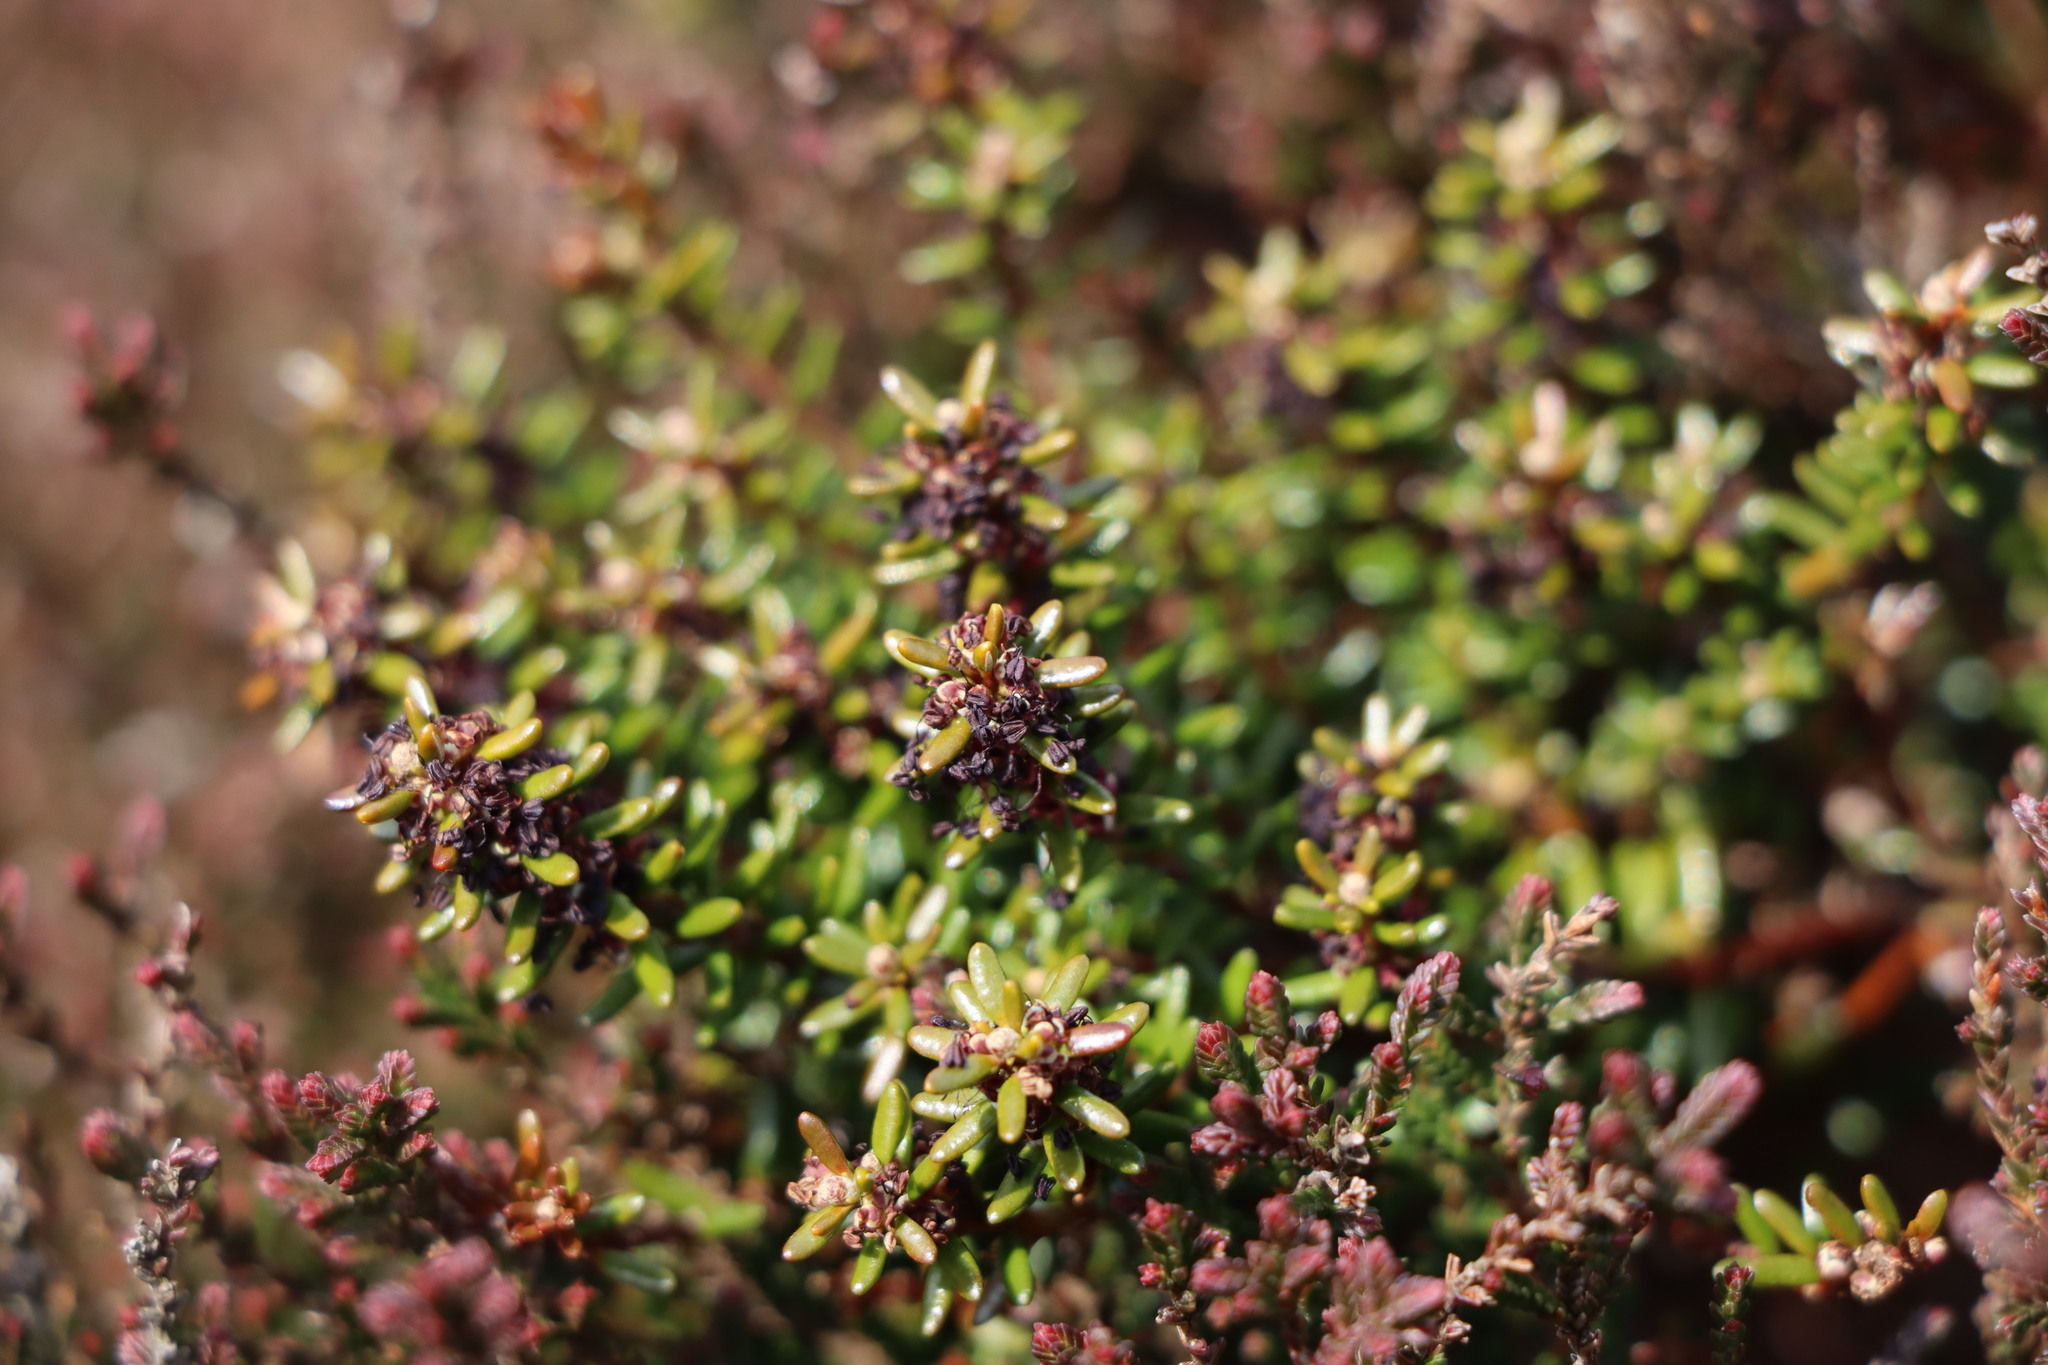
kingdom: Plantae
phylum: Tracheophyta
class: Magnoliopsida
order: Ericales
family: Ericaceae
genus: Empetrum
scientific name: Empetrum nigrum
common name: Black crowberry
